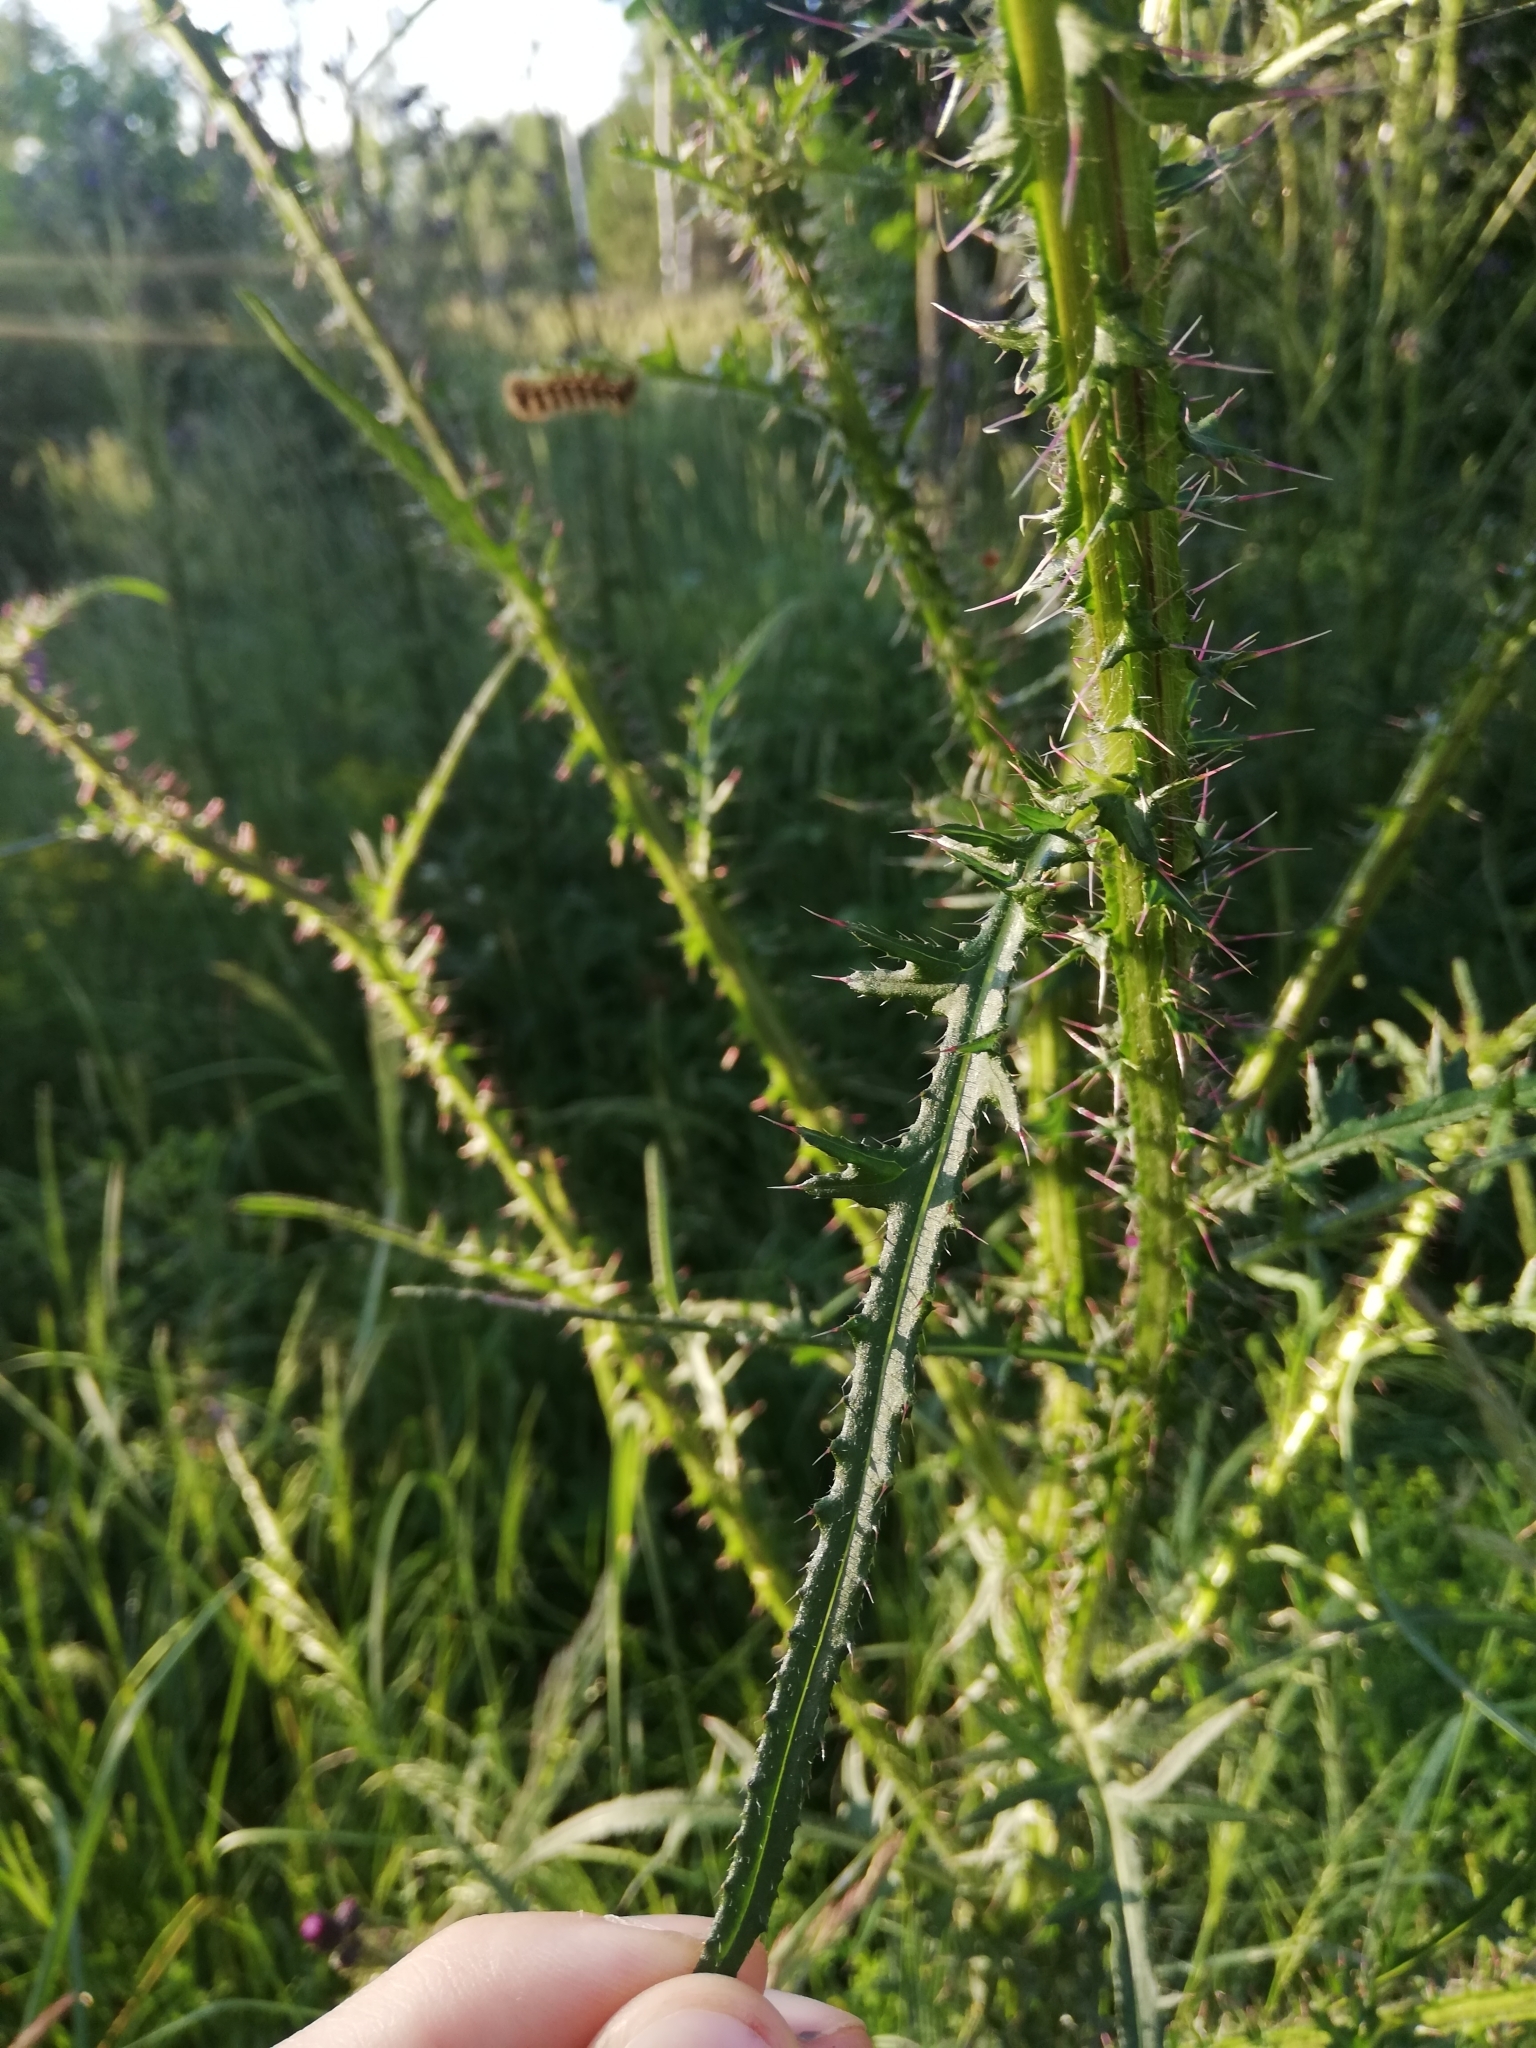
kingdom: Animalia
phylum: Arthropoda
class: Insecta
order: Lepidoptera
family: Noctuidae
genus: Acronicta
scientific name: Acronicta rumicis
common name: Knot grass
